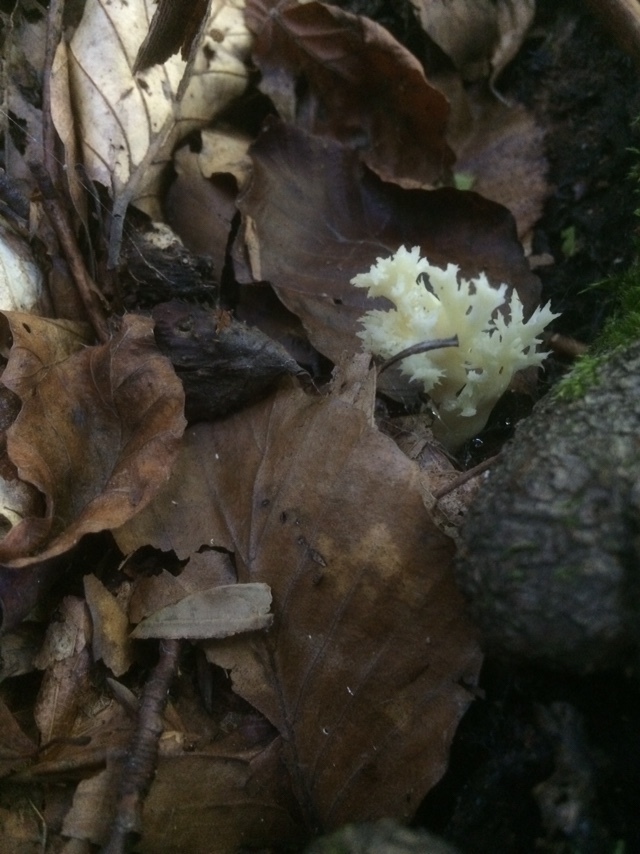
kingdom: Fungi
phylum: Basidiomycota
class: Agaricomycetes
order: Cantharellales
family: Hydnaceae
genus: Clavulina
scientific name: Clavulina coralloides
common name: Crested coral
